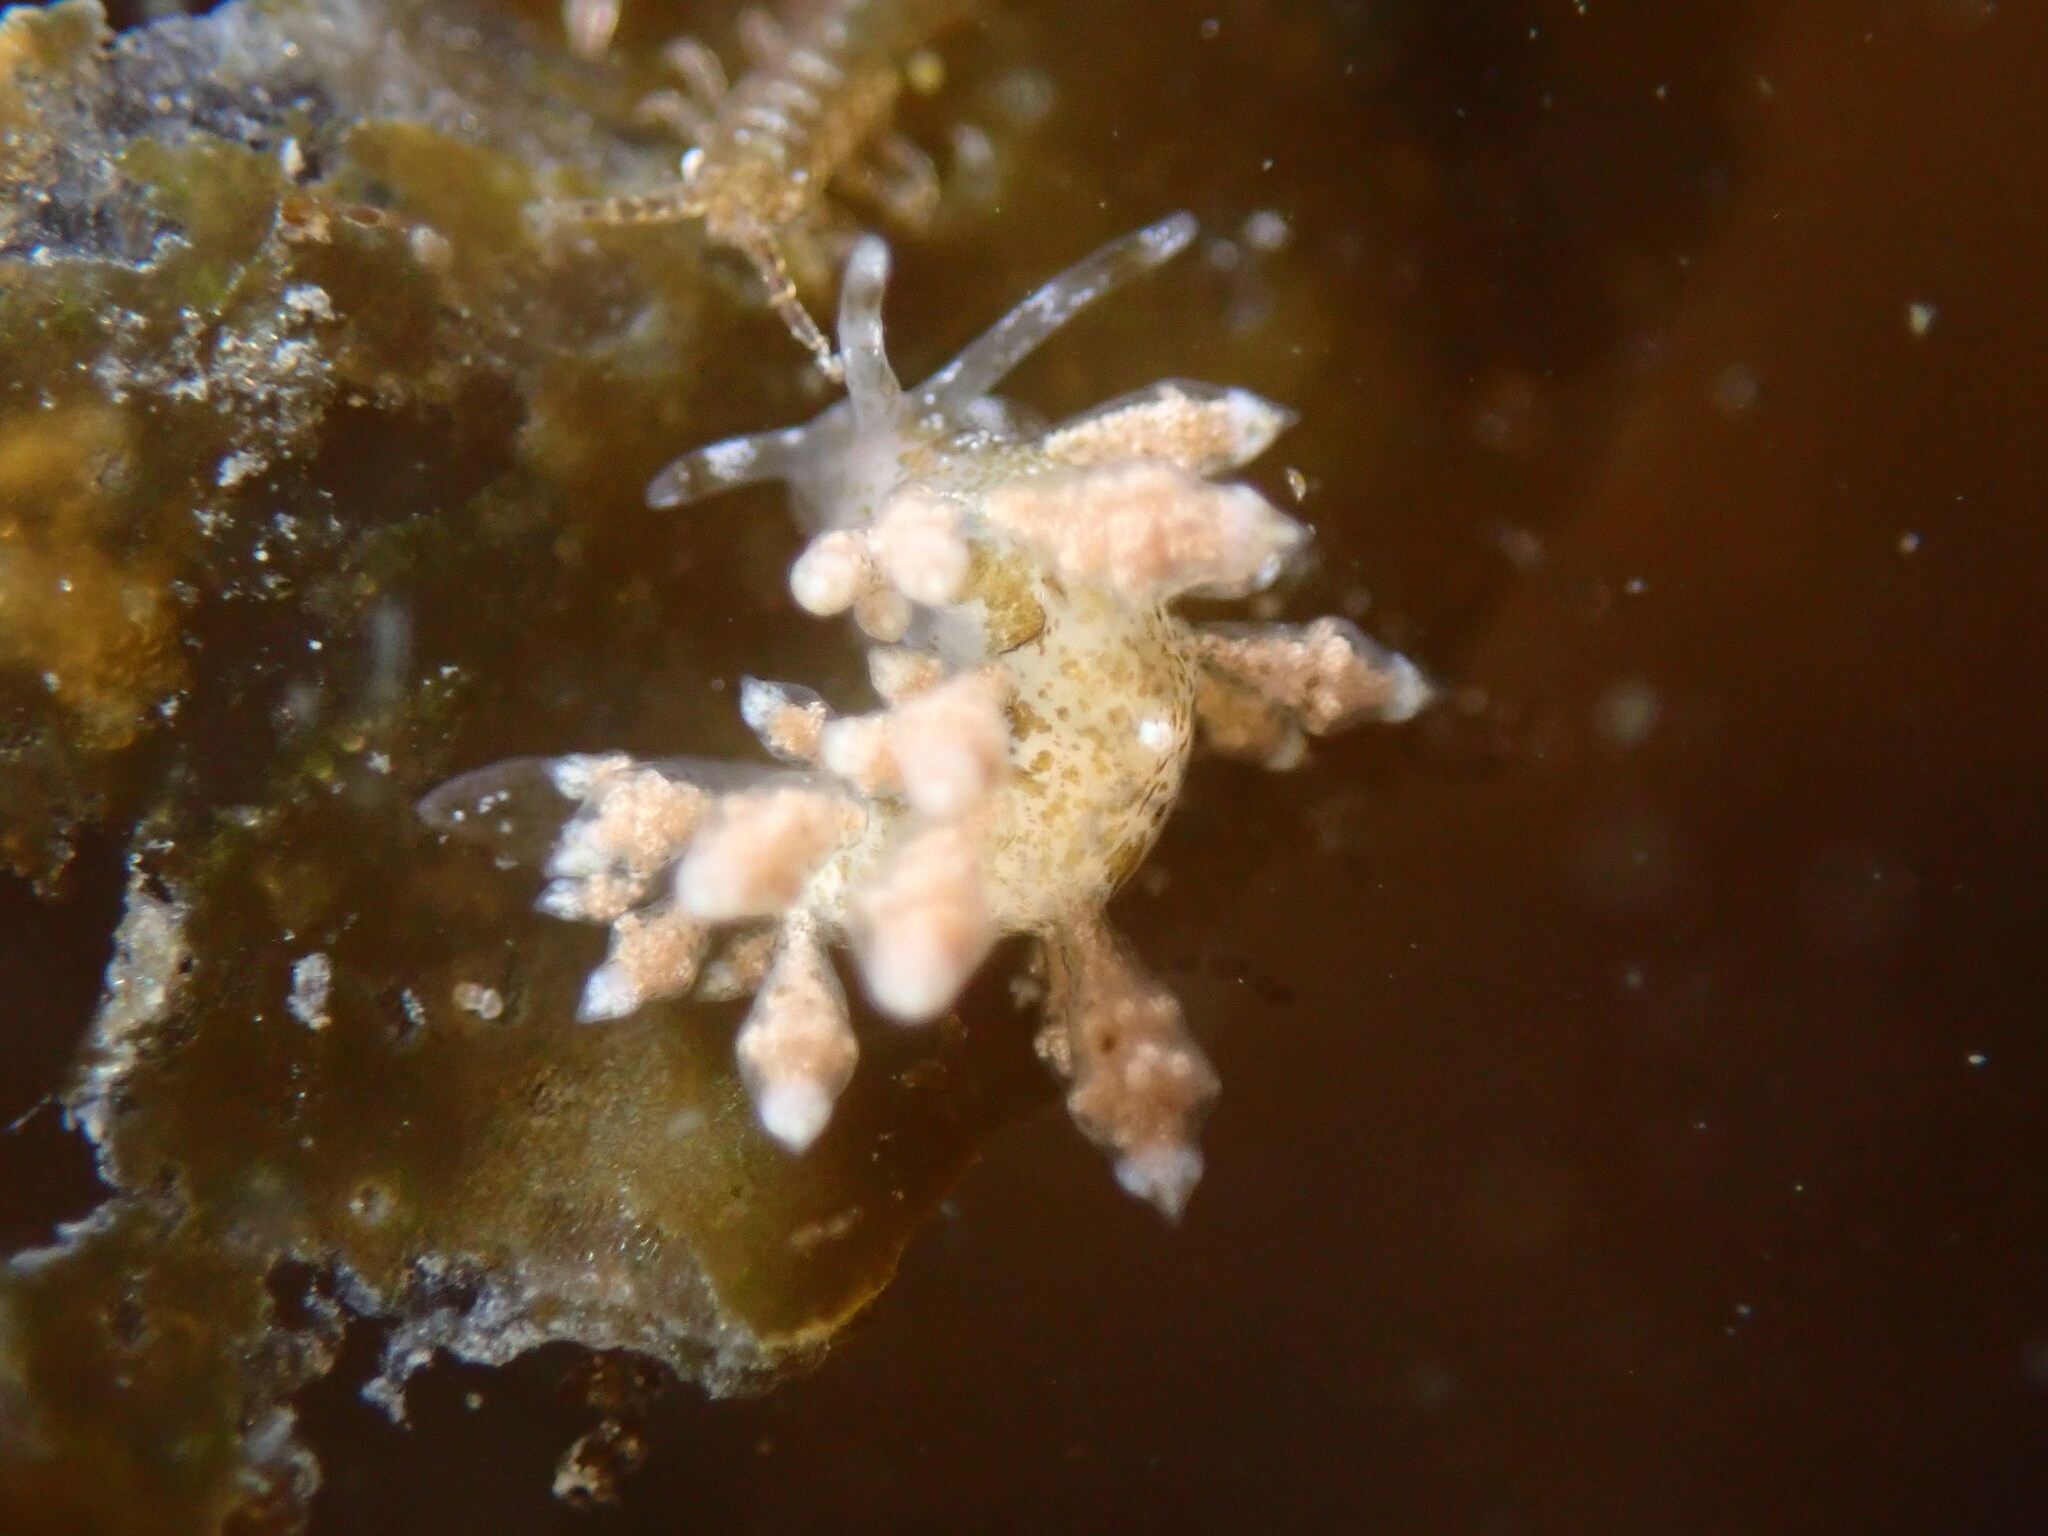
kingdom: Animalia
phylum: Mollusca
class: Gastropoda
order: Nudibranchia
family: Eubranchidae
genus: Eubranchus
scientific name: Eubranchus rustyus
